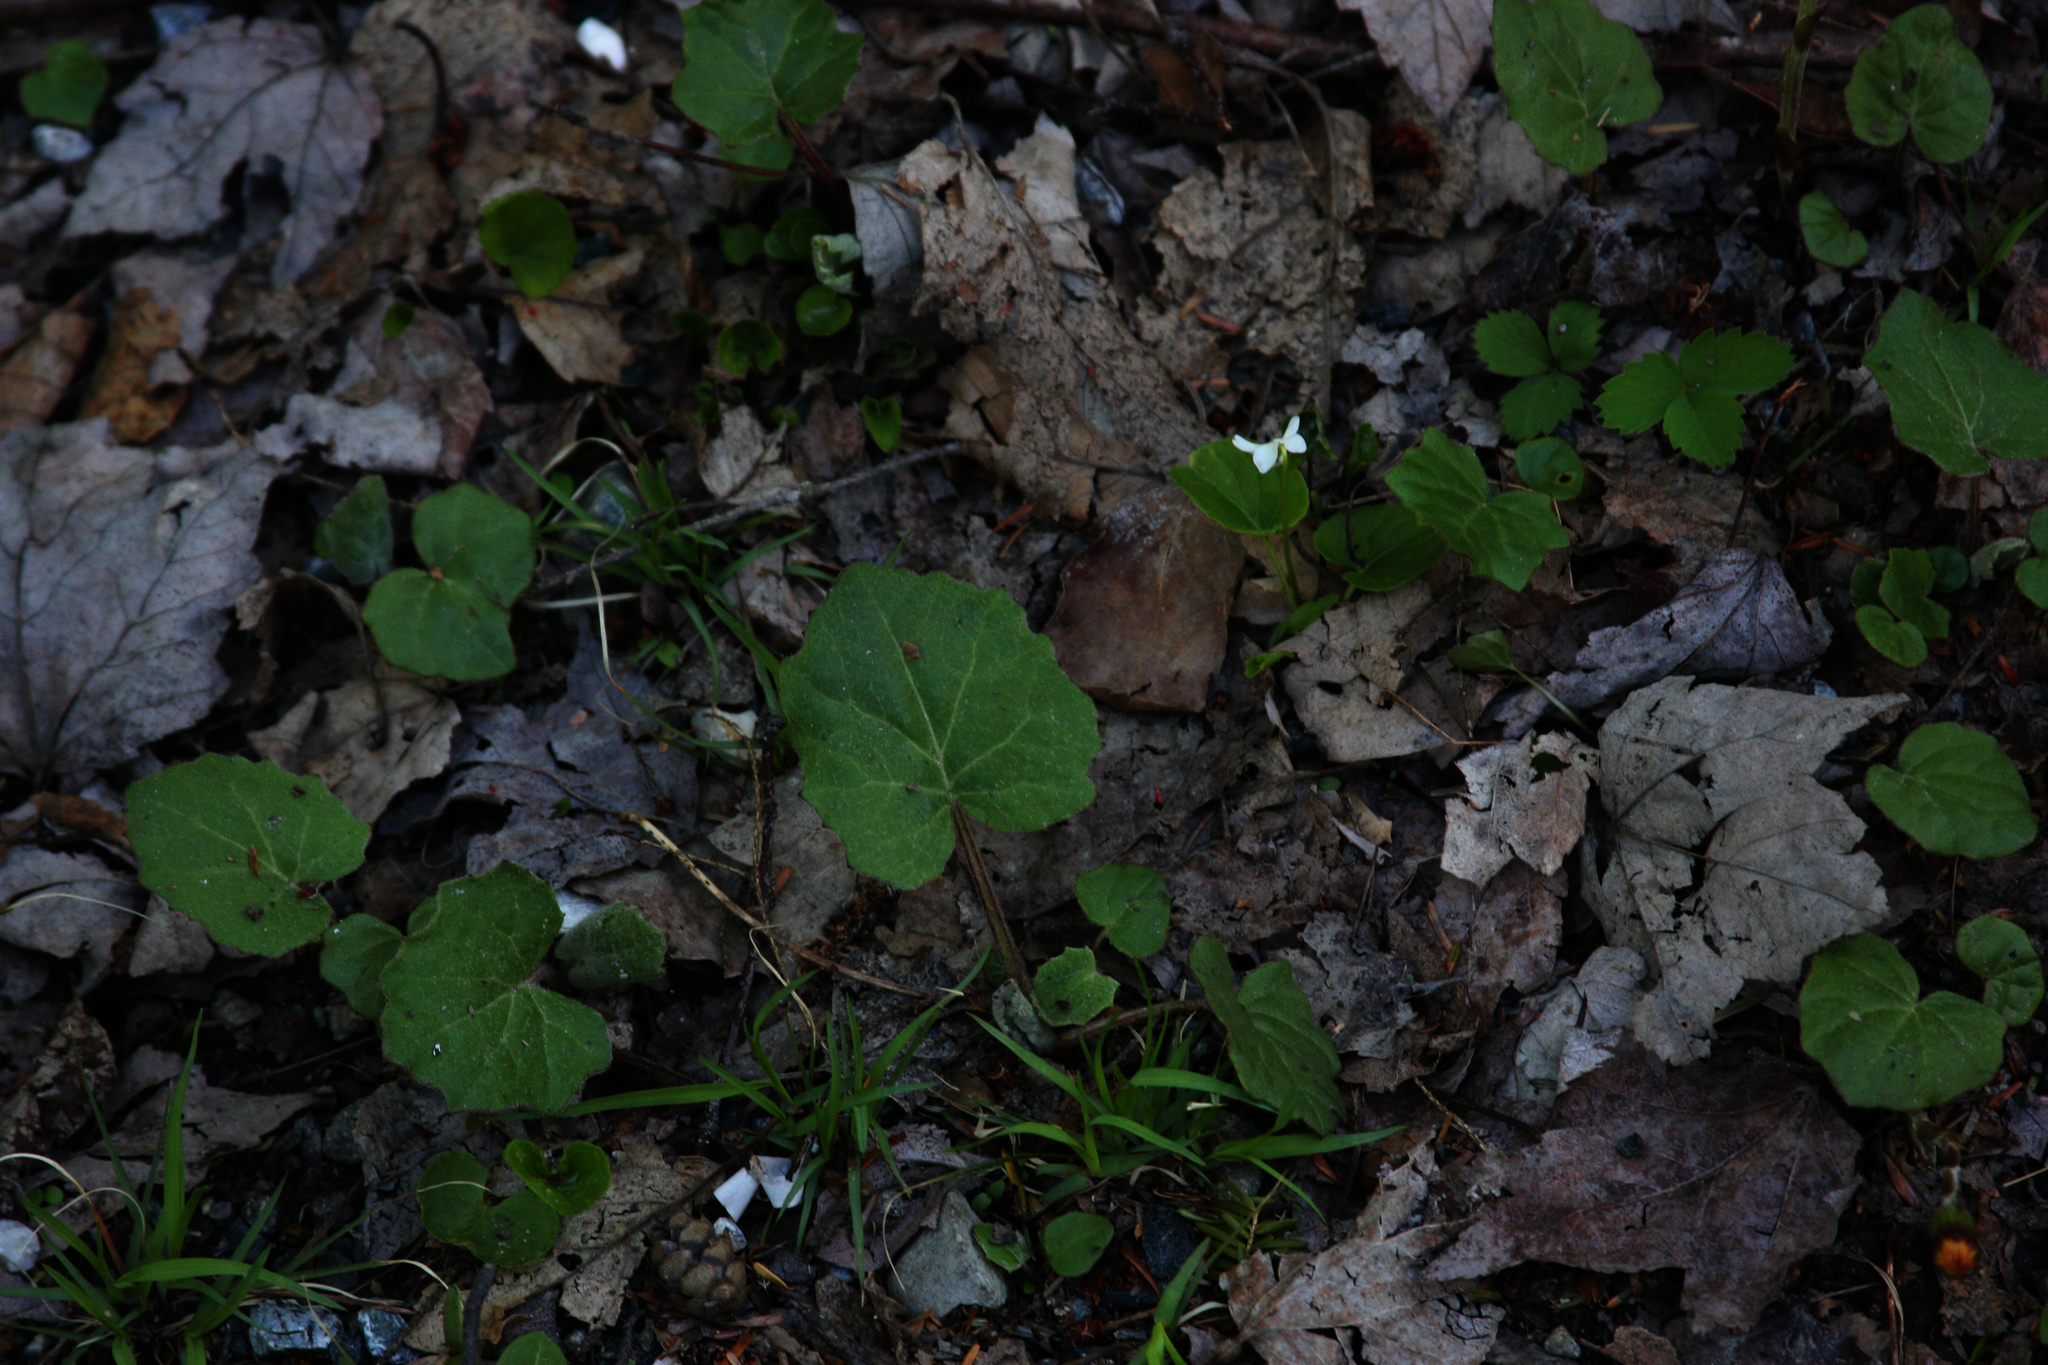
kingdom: Plantae
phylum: Tracheophyta
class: Magnoliopsida
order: Asterales
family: Asteraceae
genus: Tussilago
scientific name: Tussilago farfara
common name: Coltsfoot
